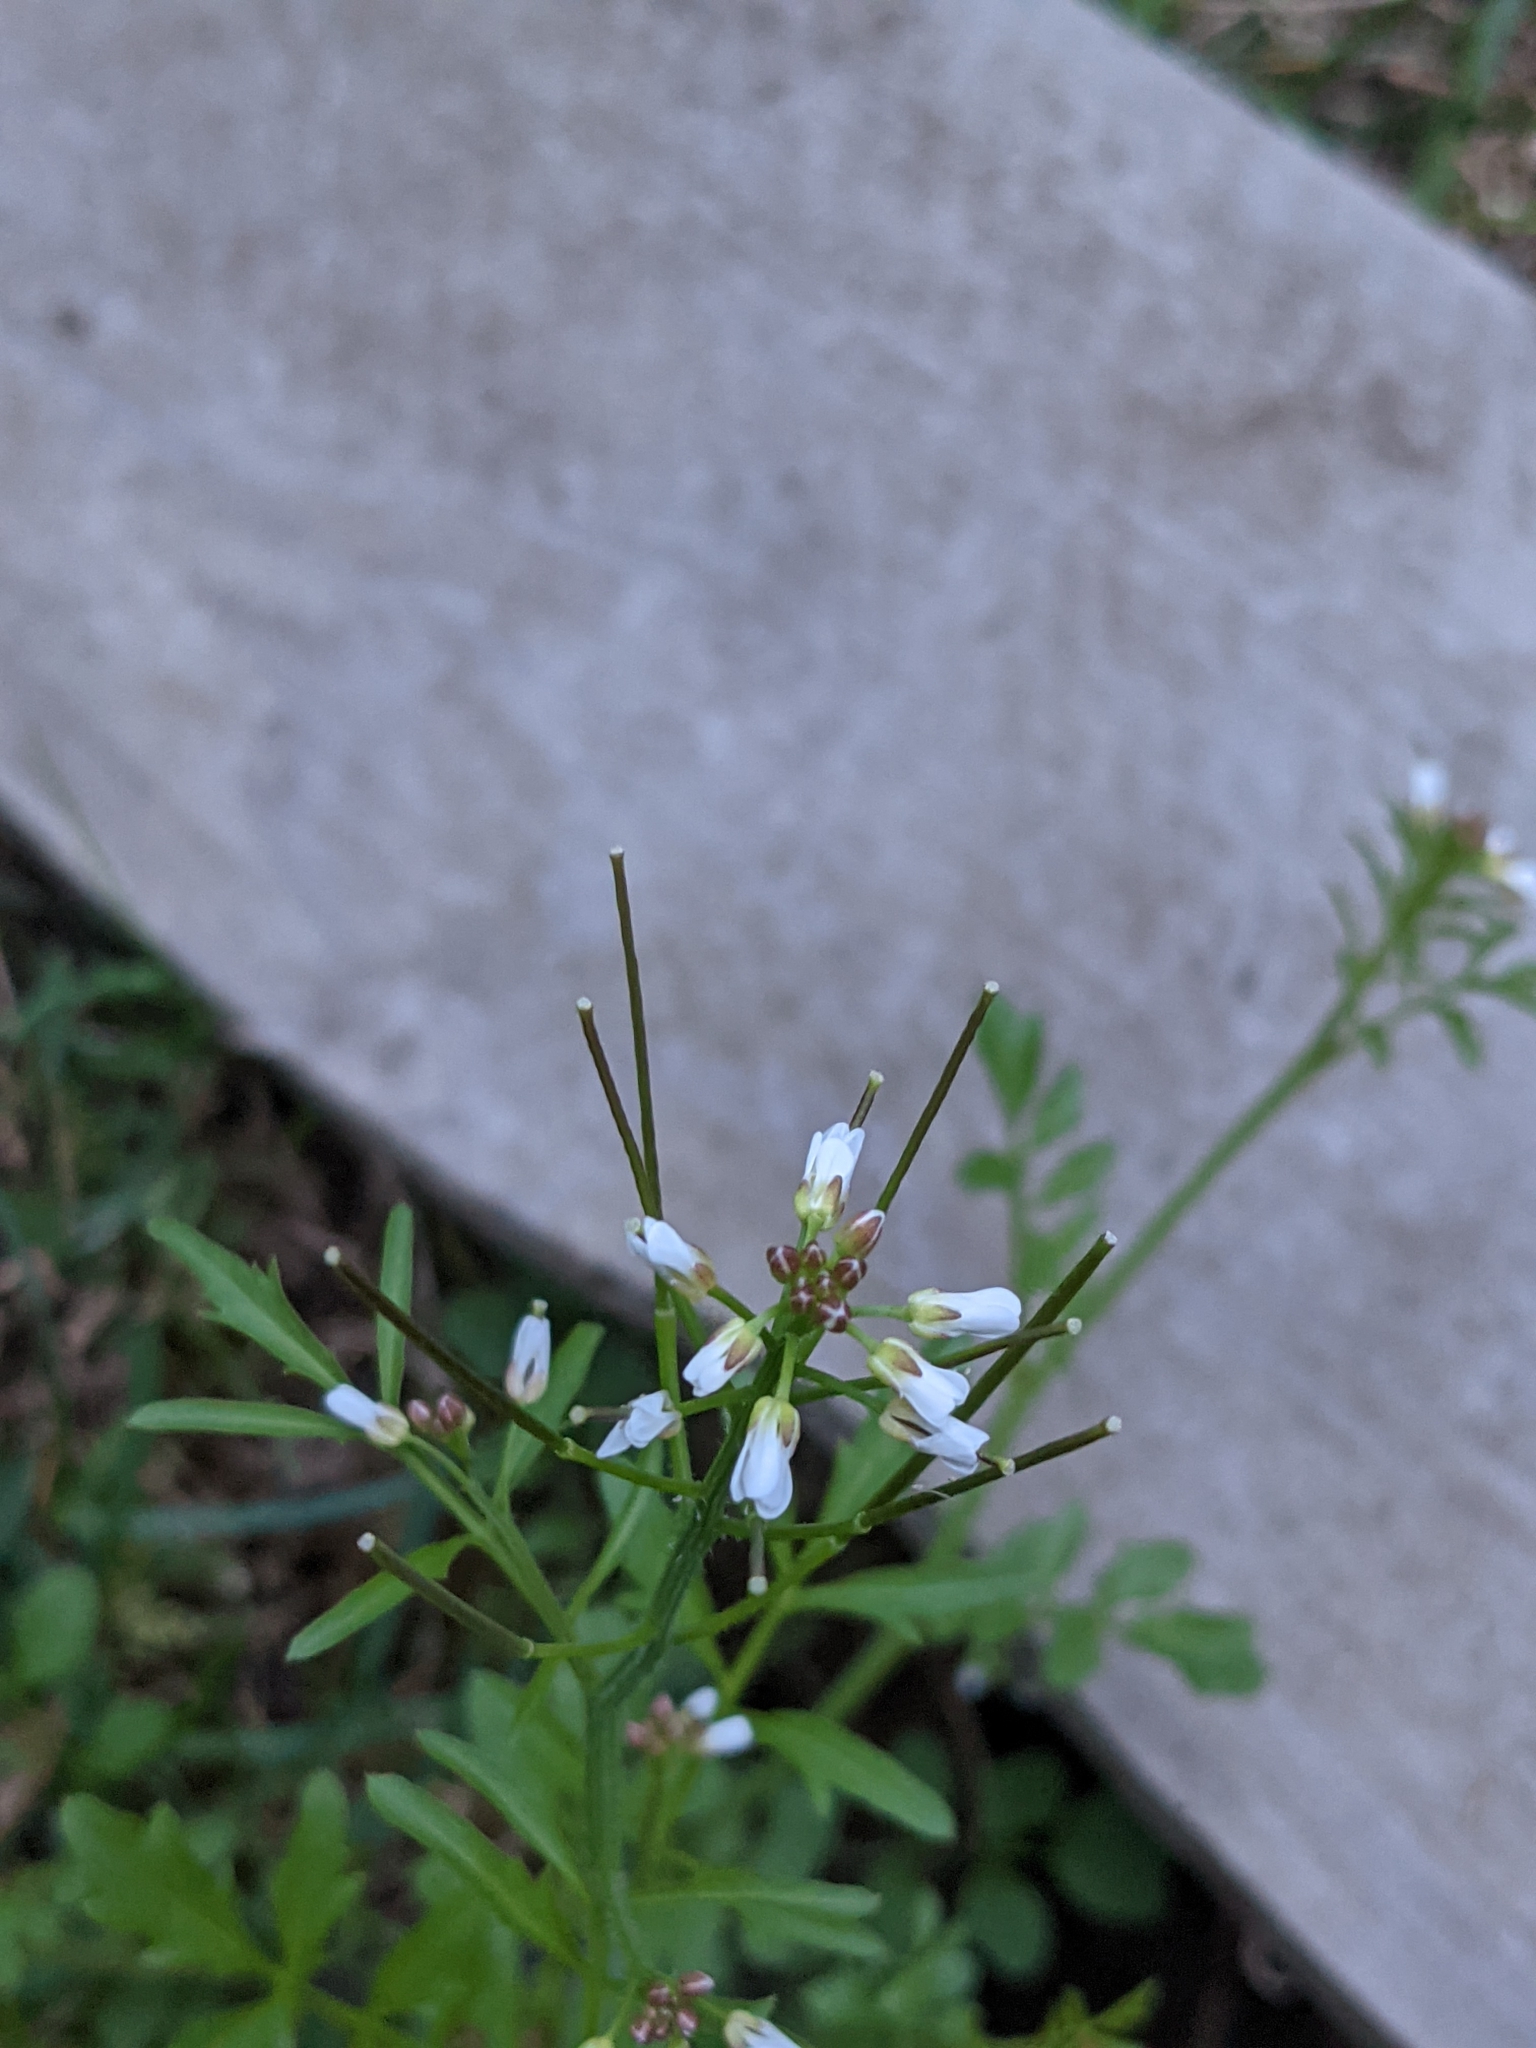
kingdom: Plantae
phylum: Tracheophyta
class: Magnoliopsida
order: Brassicales
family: Brassicaceae
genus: Cardamine
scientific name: Cardamine flexuosa
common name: Woodland bittercress
